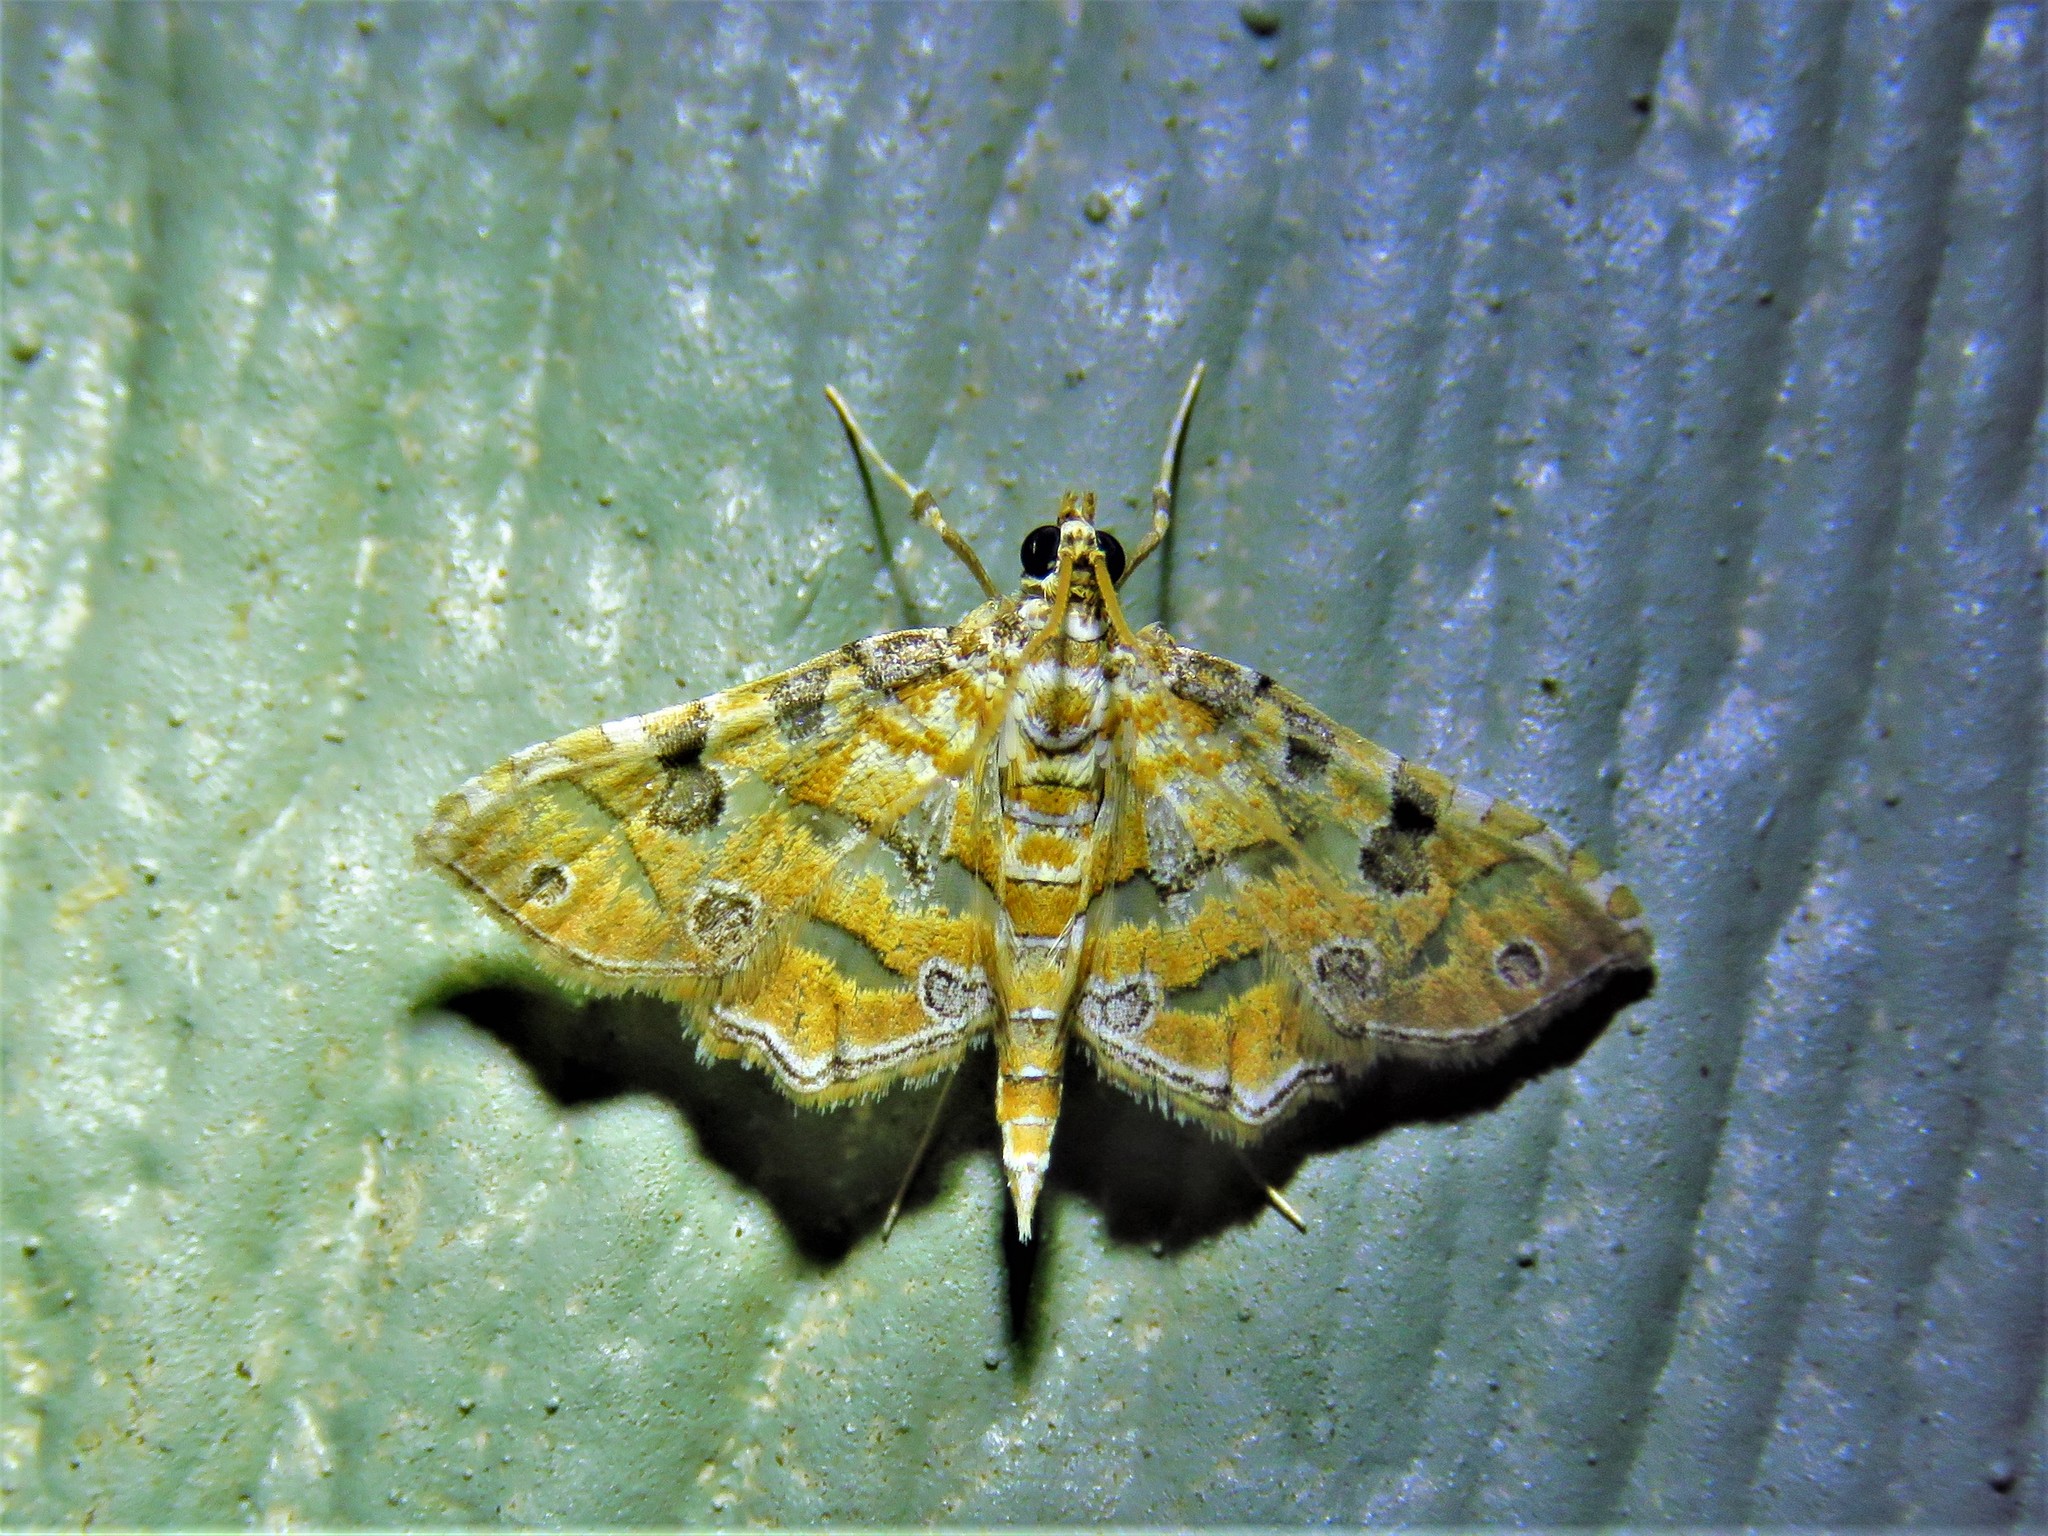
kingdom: Animalia
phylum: Arthropoda
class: Insecta
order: Lepidoptera
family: Crambidae
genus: Ommatospila
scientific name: Ommatospila narcaeusalis
